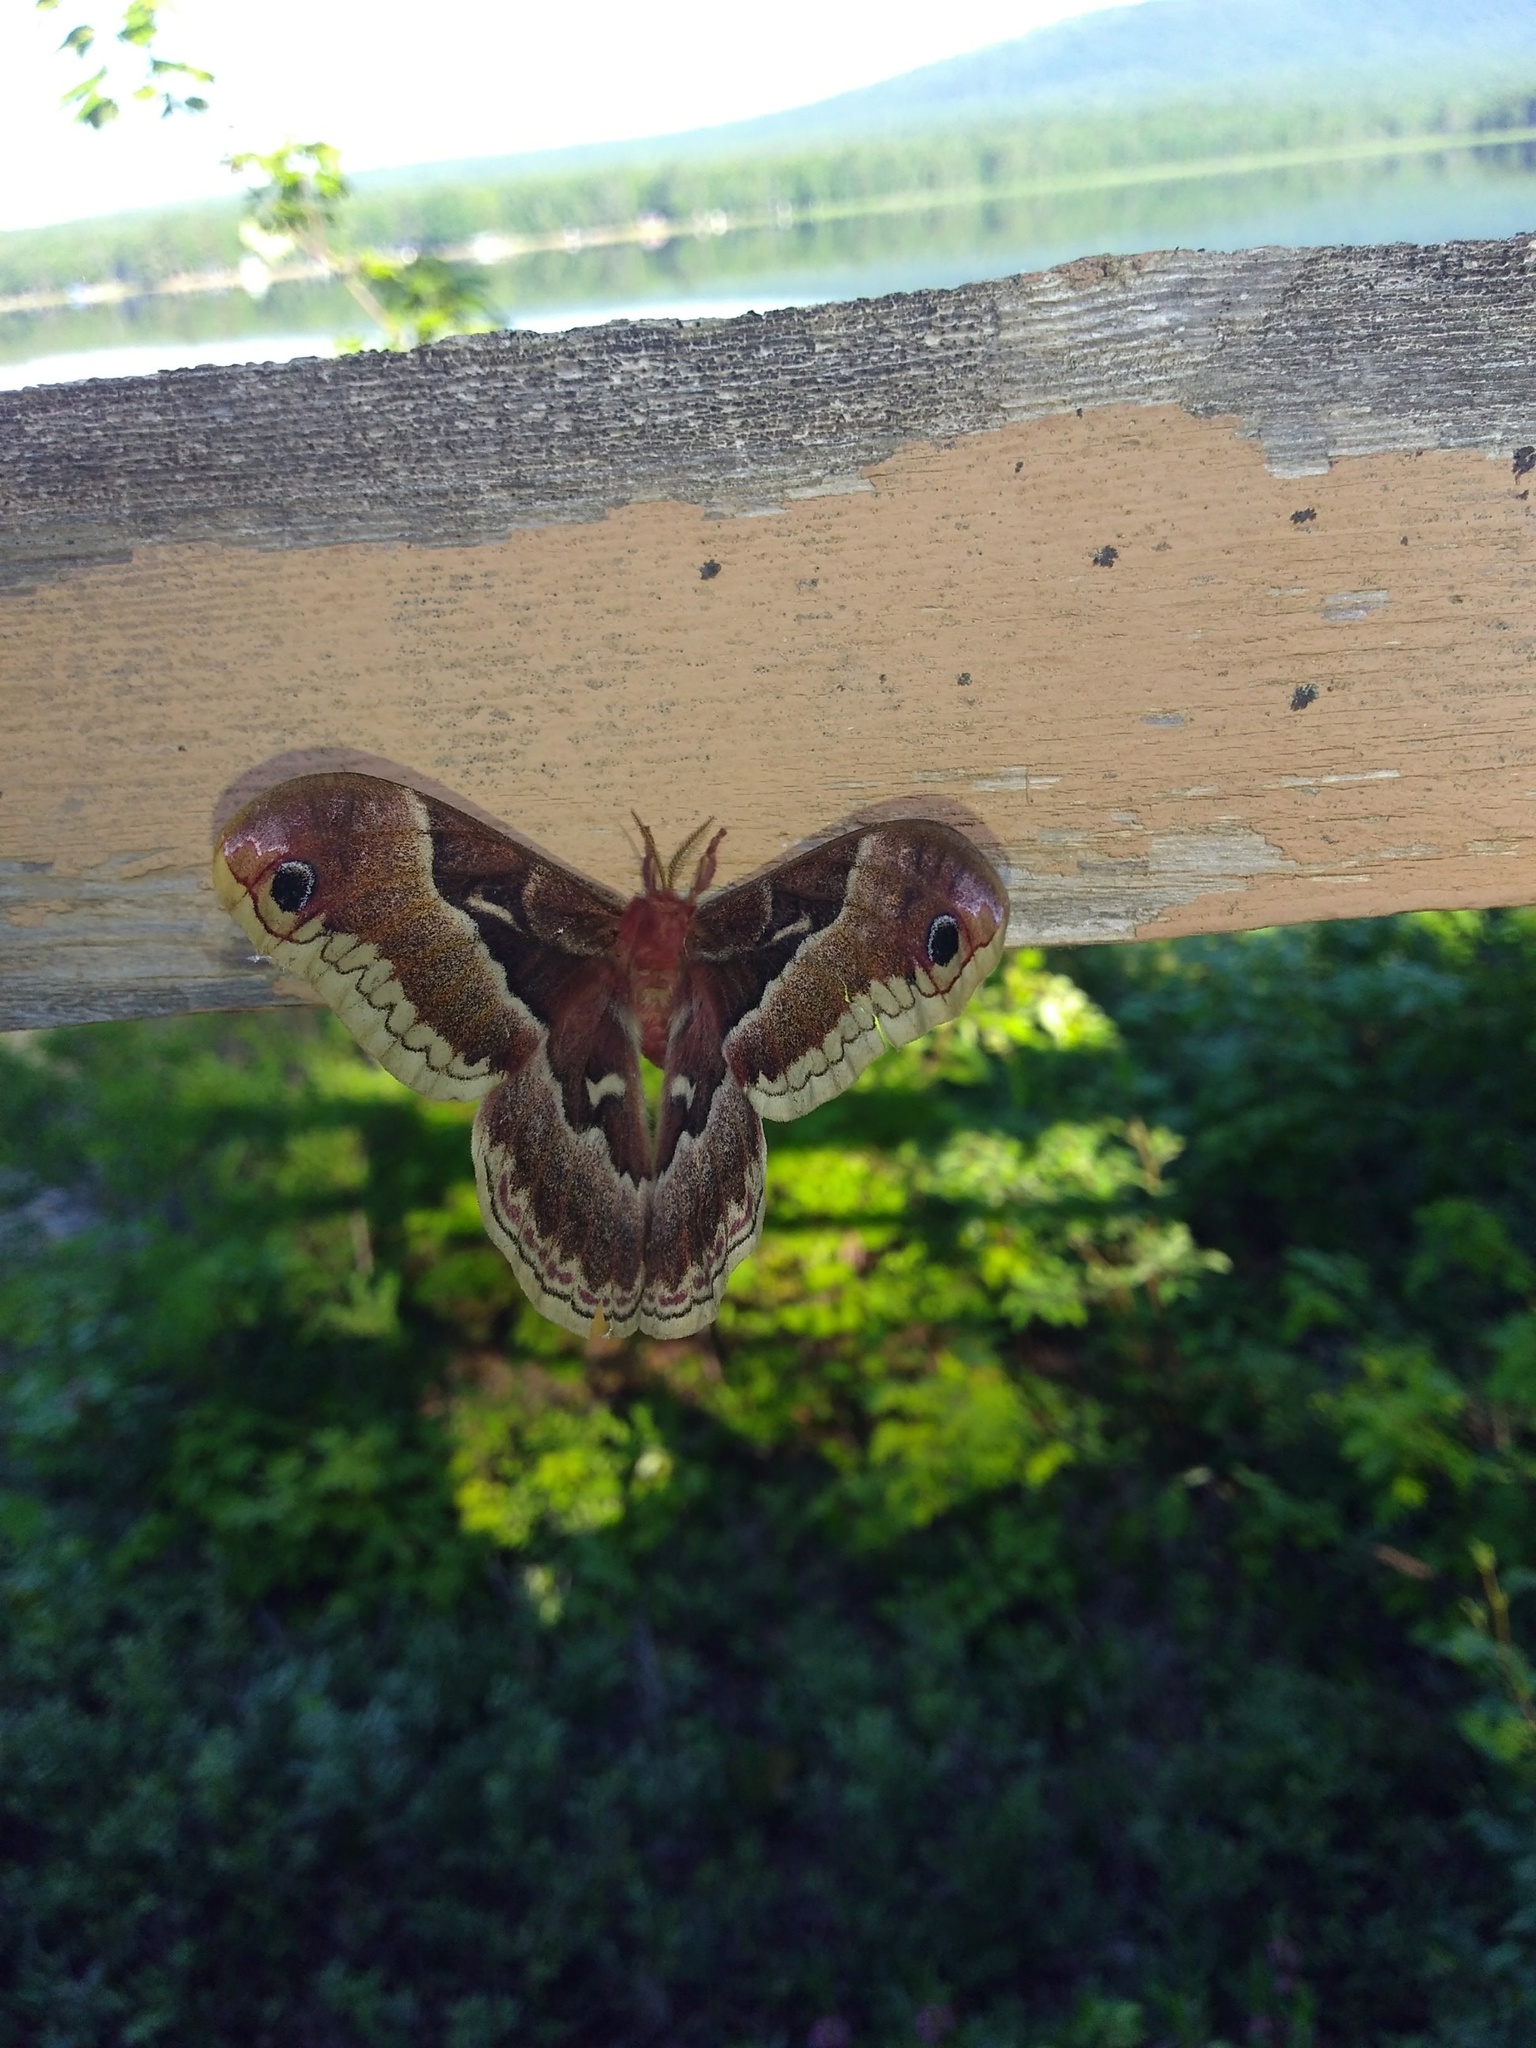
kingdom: Animalia
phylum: Arthropoda
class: Insecta
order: Lepidoptera
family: Saturniidae
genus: Callosamia
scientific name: Callosamia promethea
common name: Promethea silkmoth
